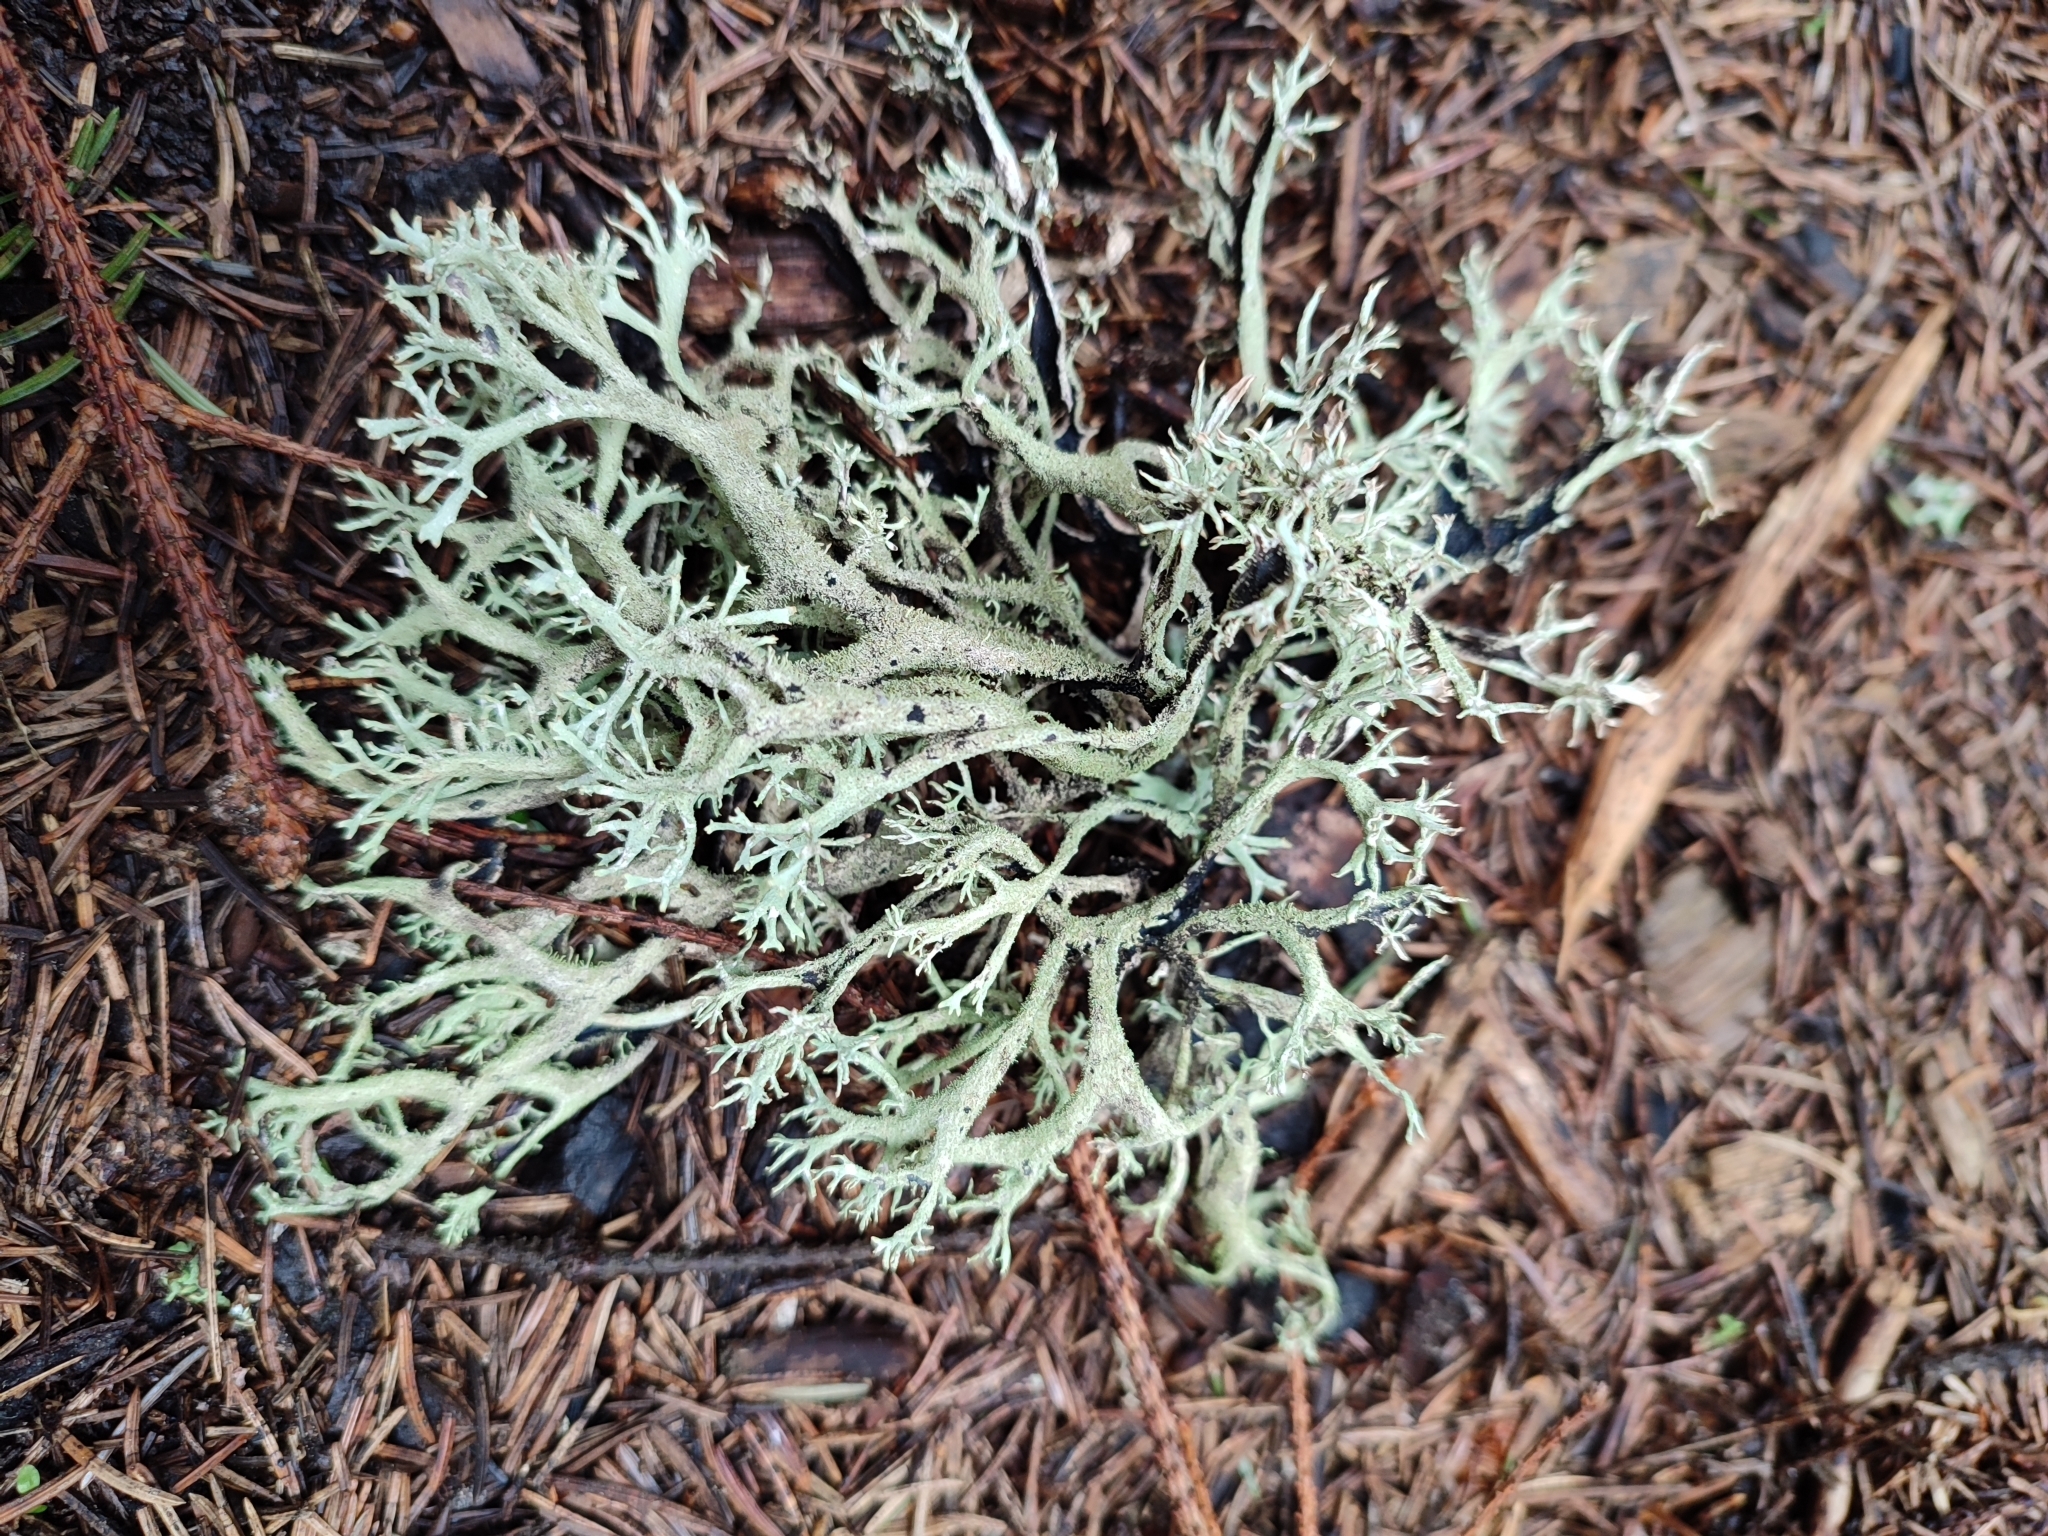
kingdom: Fungi
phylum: Ascomycota
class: Lecanoromycetes
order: Lecanorales
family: Parmeliaceae
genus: Pseudevernia
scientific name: Pseudevernia furfuracea
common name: Tree moss
